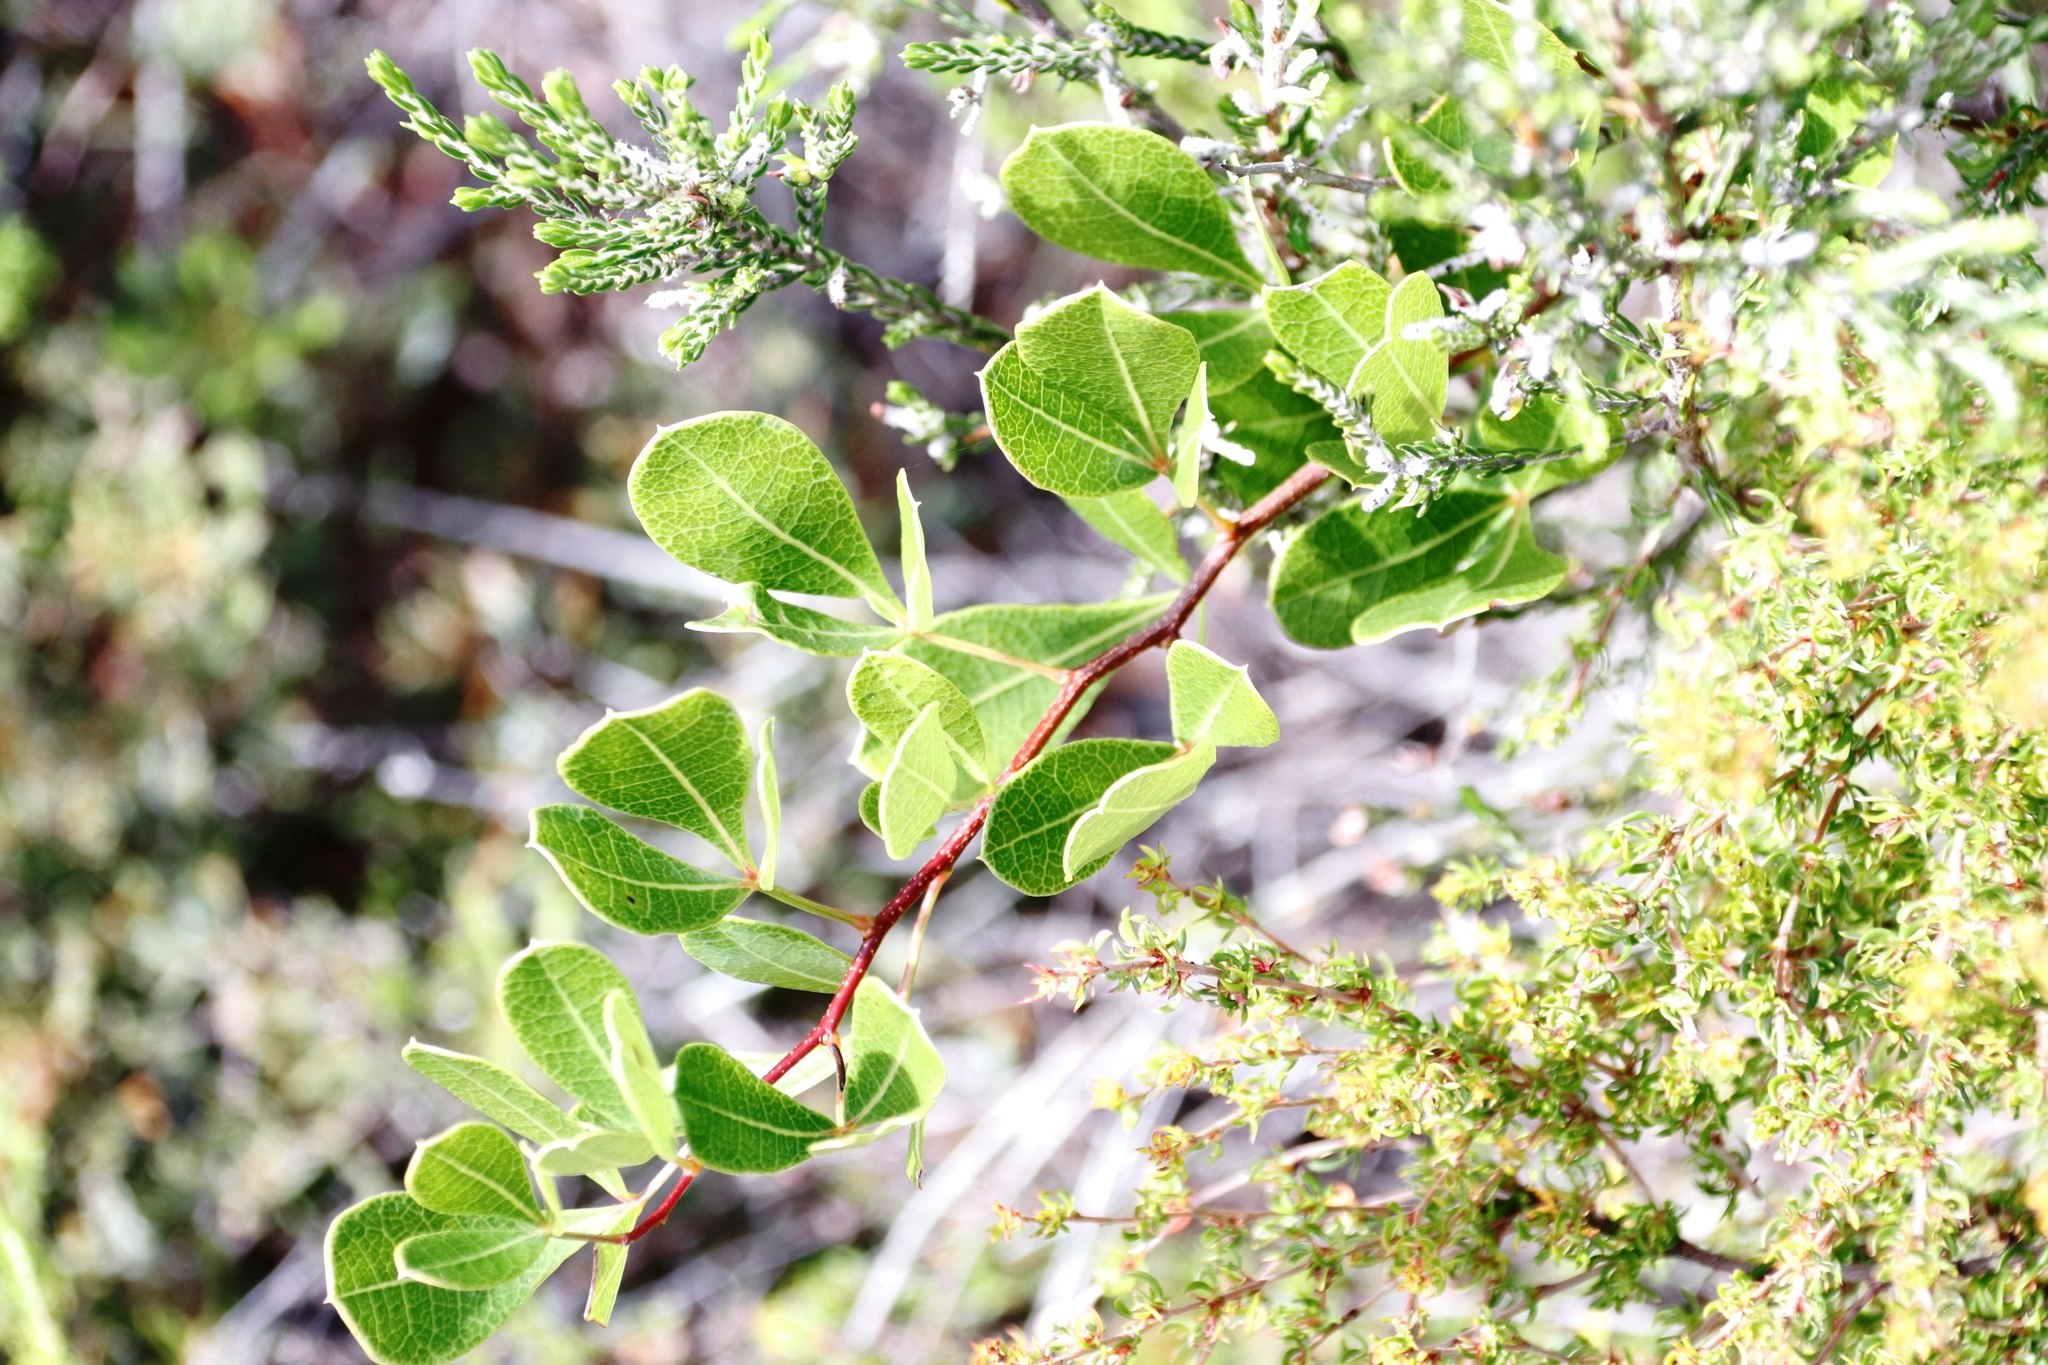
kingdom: Plantae
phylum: Tracheophyta
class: Magnoliopsida
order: Sapindales
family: Anacardiaceae
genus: Searsia
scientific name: Searsia laevigata
